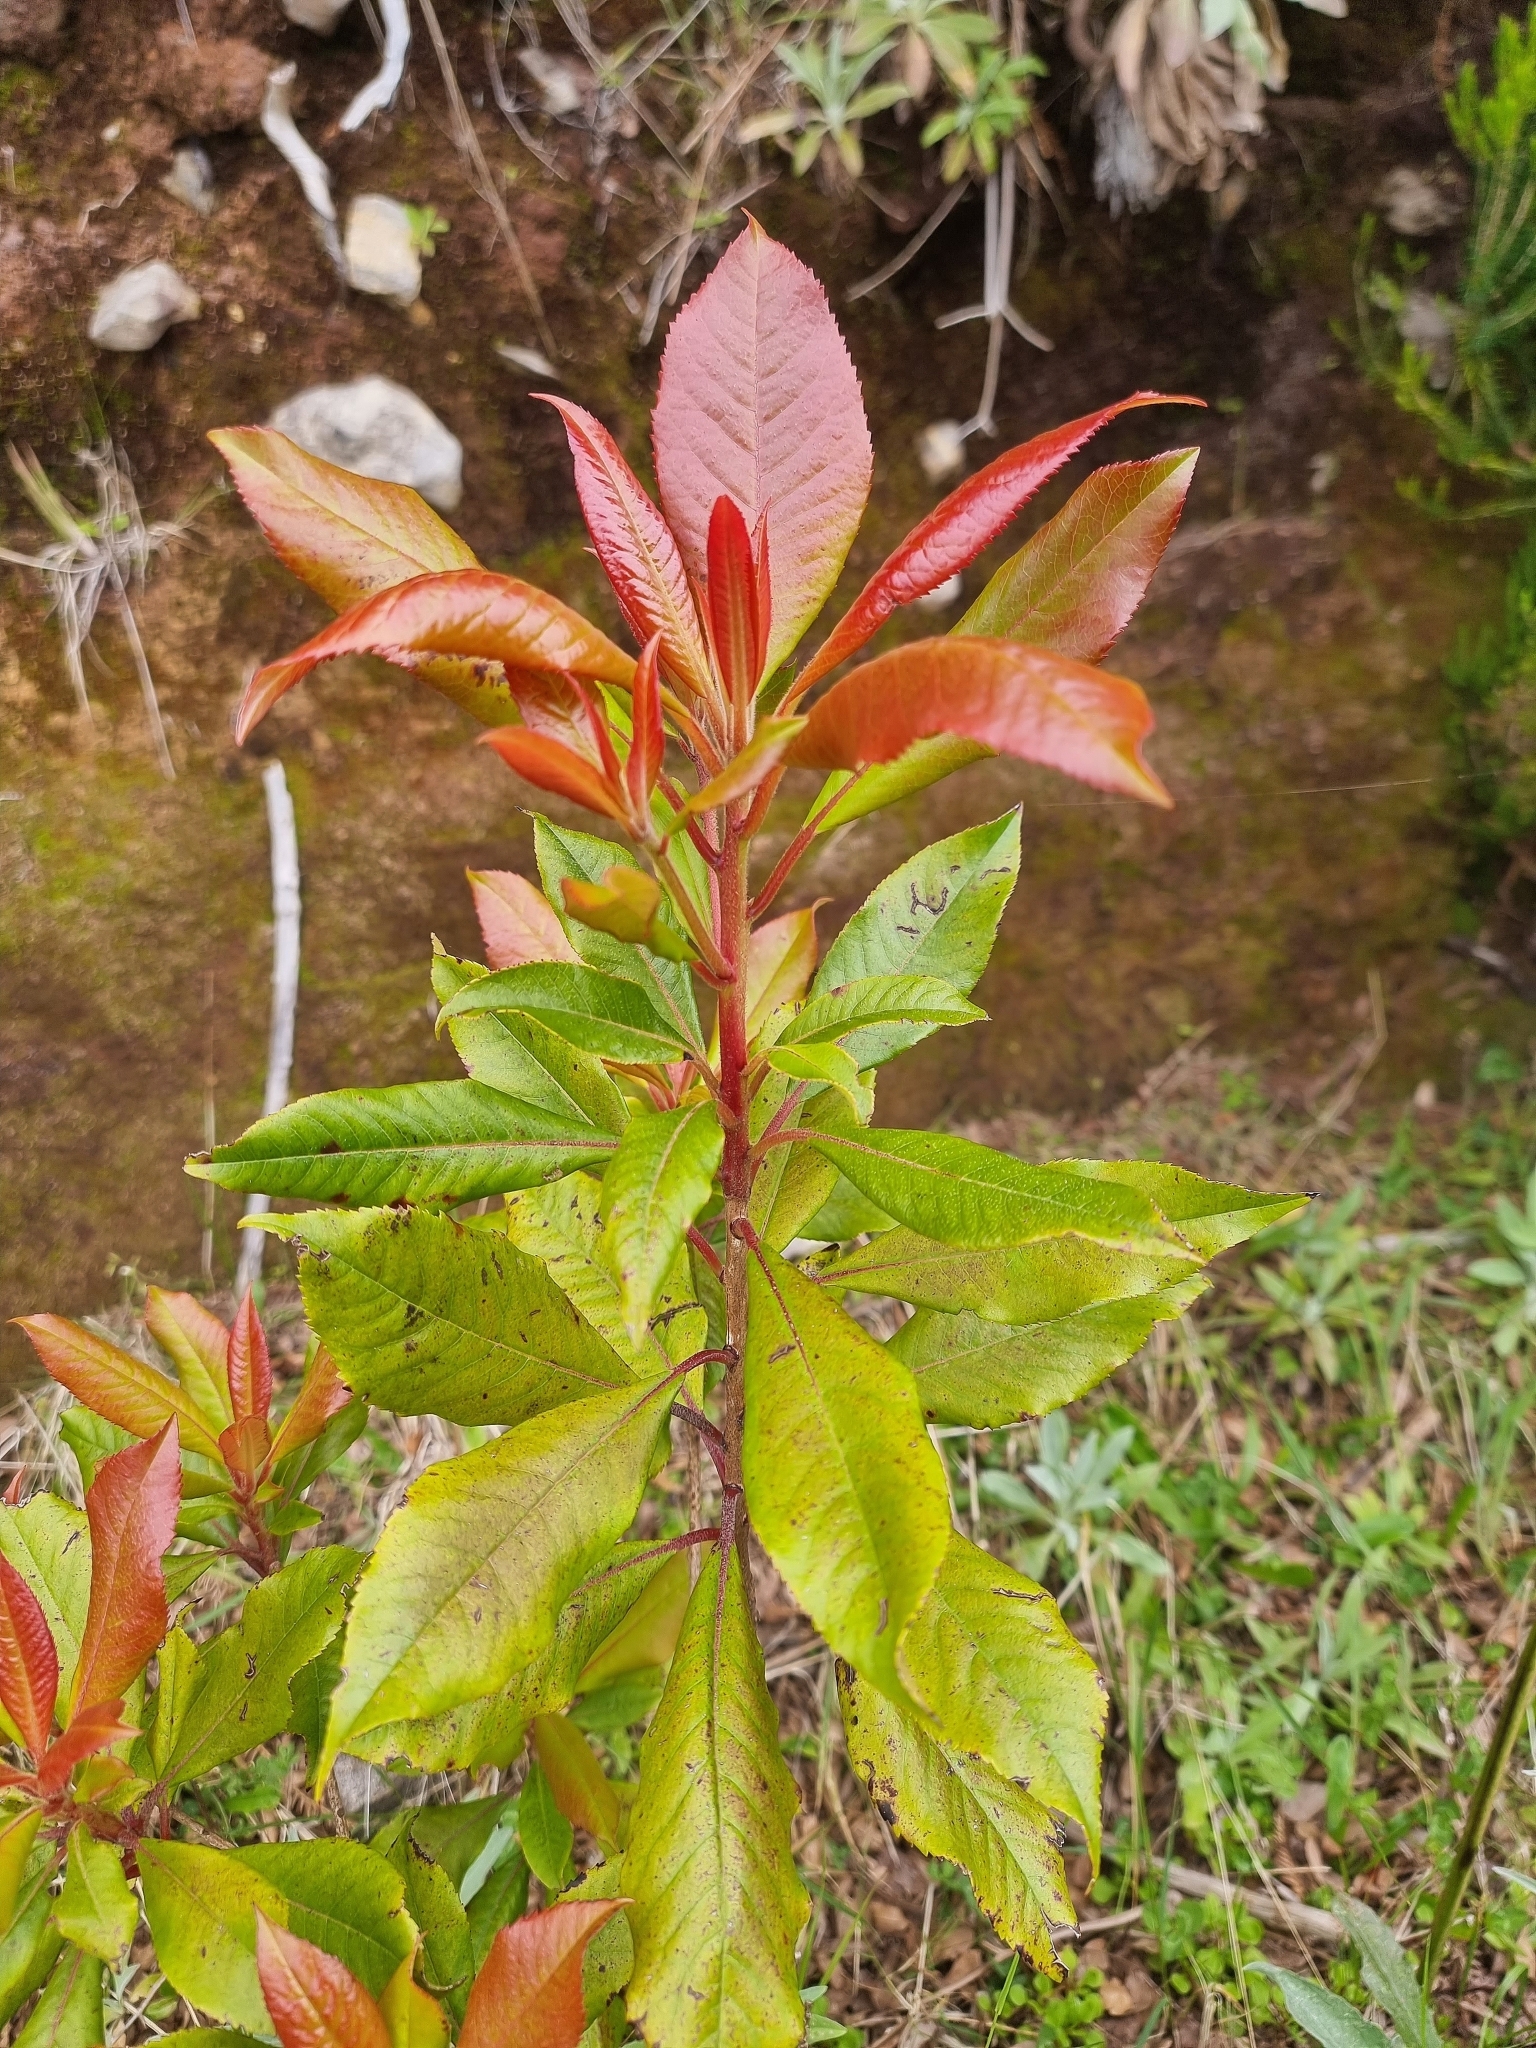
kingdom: Plantae
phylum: Tracheophyta
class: Magnoliopsida
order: Ericales
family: Clethraceae
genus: Clethra
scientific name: Clethra arborea
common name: Lily-of-the-valley-tree
